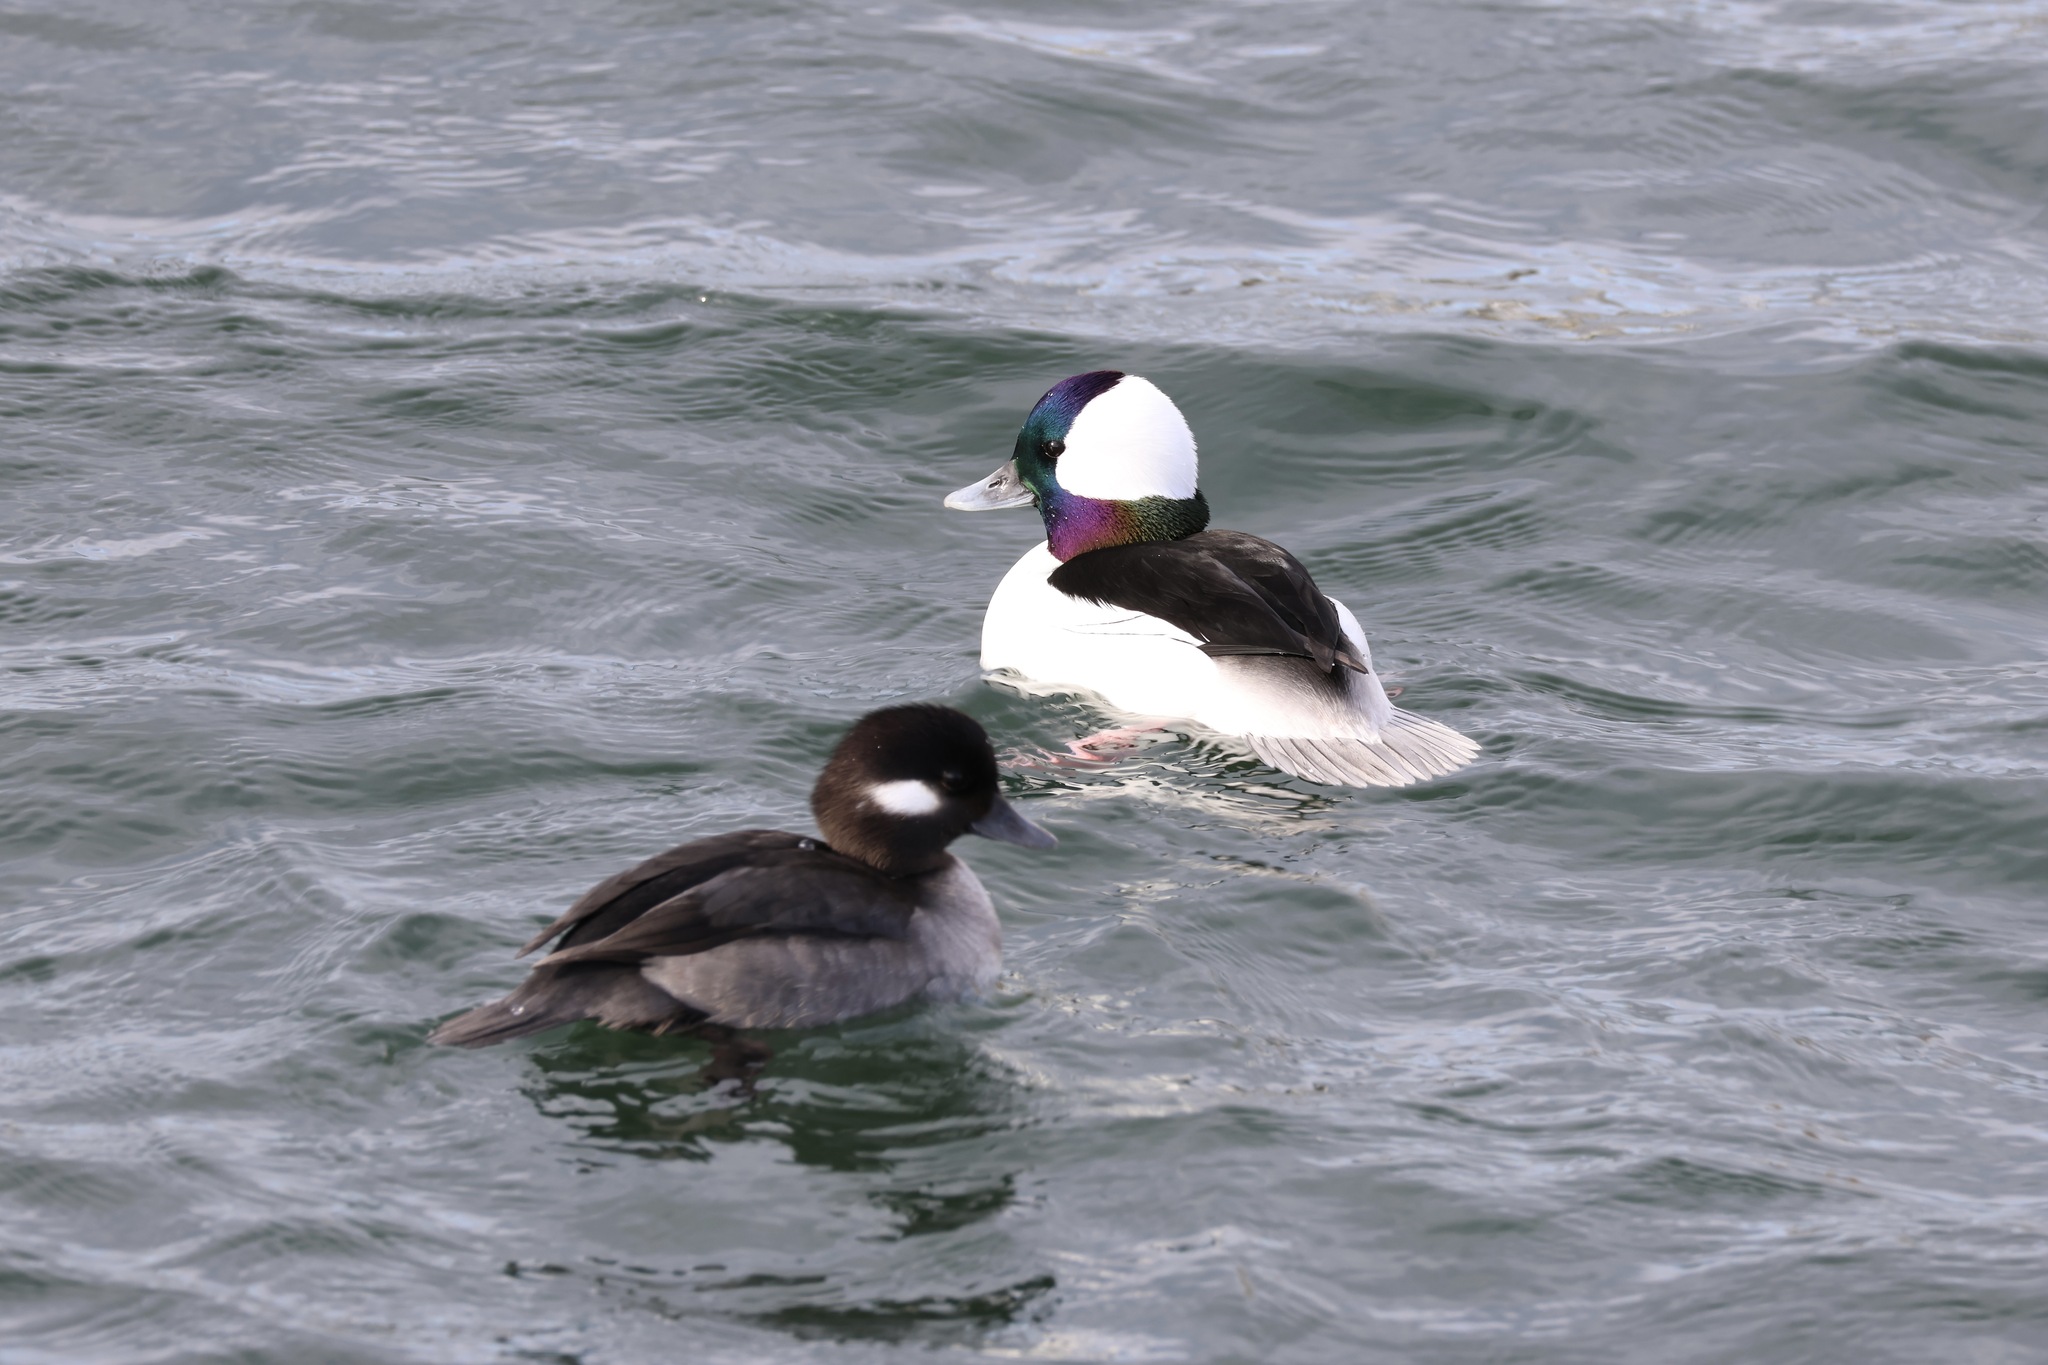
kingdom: Animalia
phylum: Chordata
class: Aves
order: Anseriformes
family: Anatidae
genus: Bucephala
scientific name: Bucephala albeola
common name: Bufflehead
